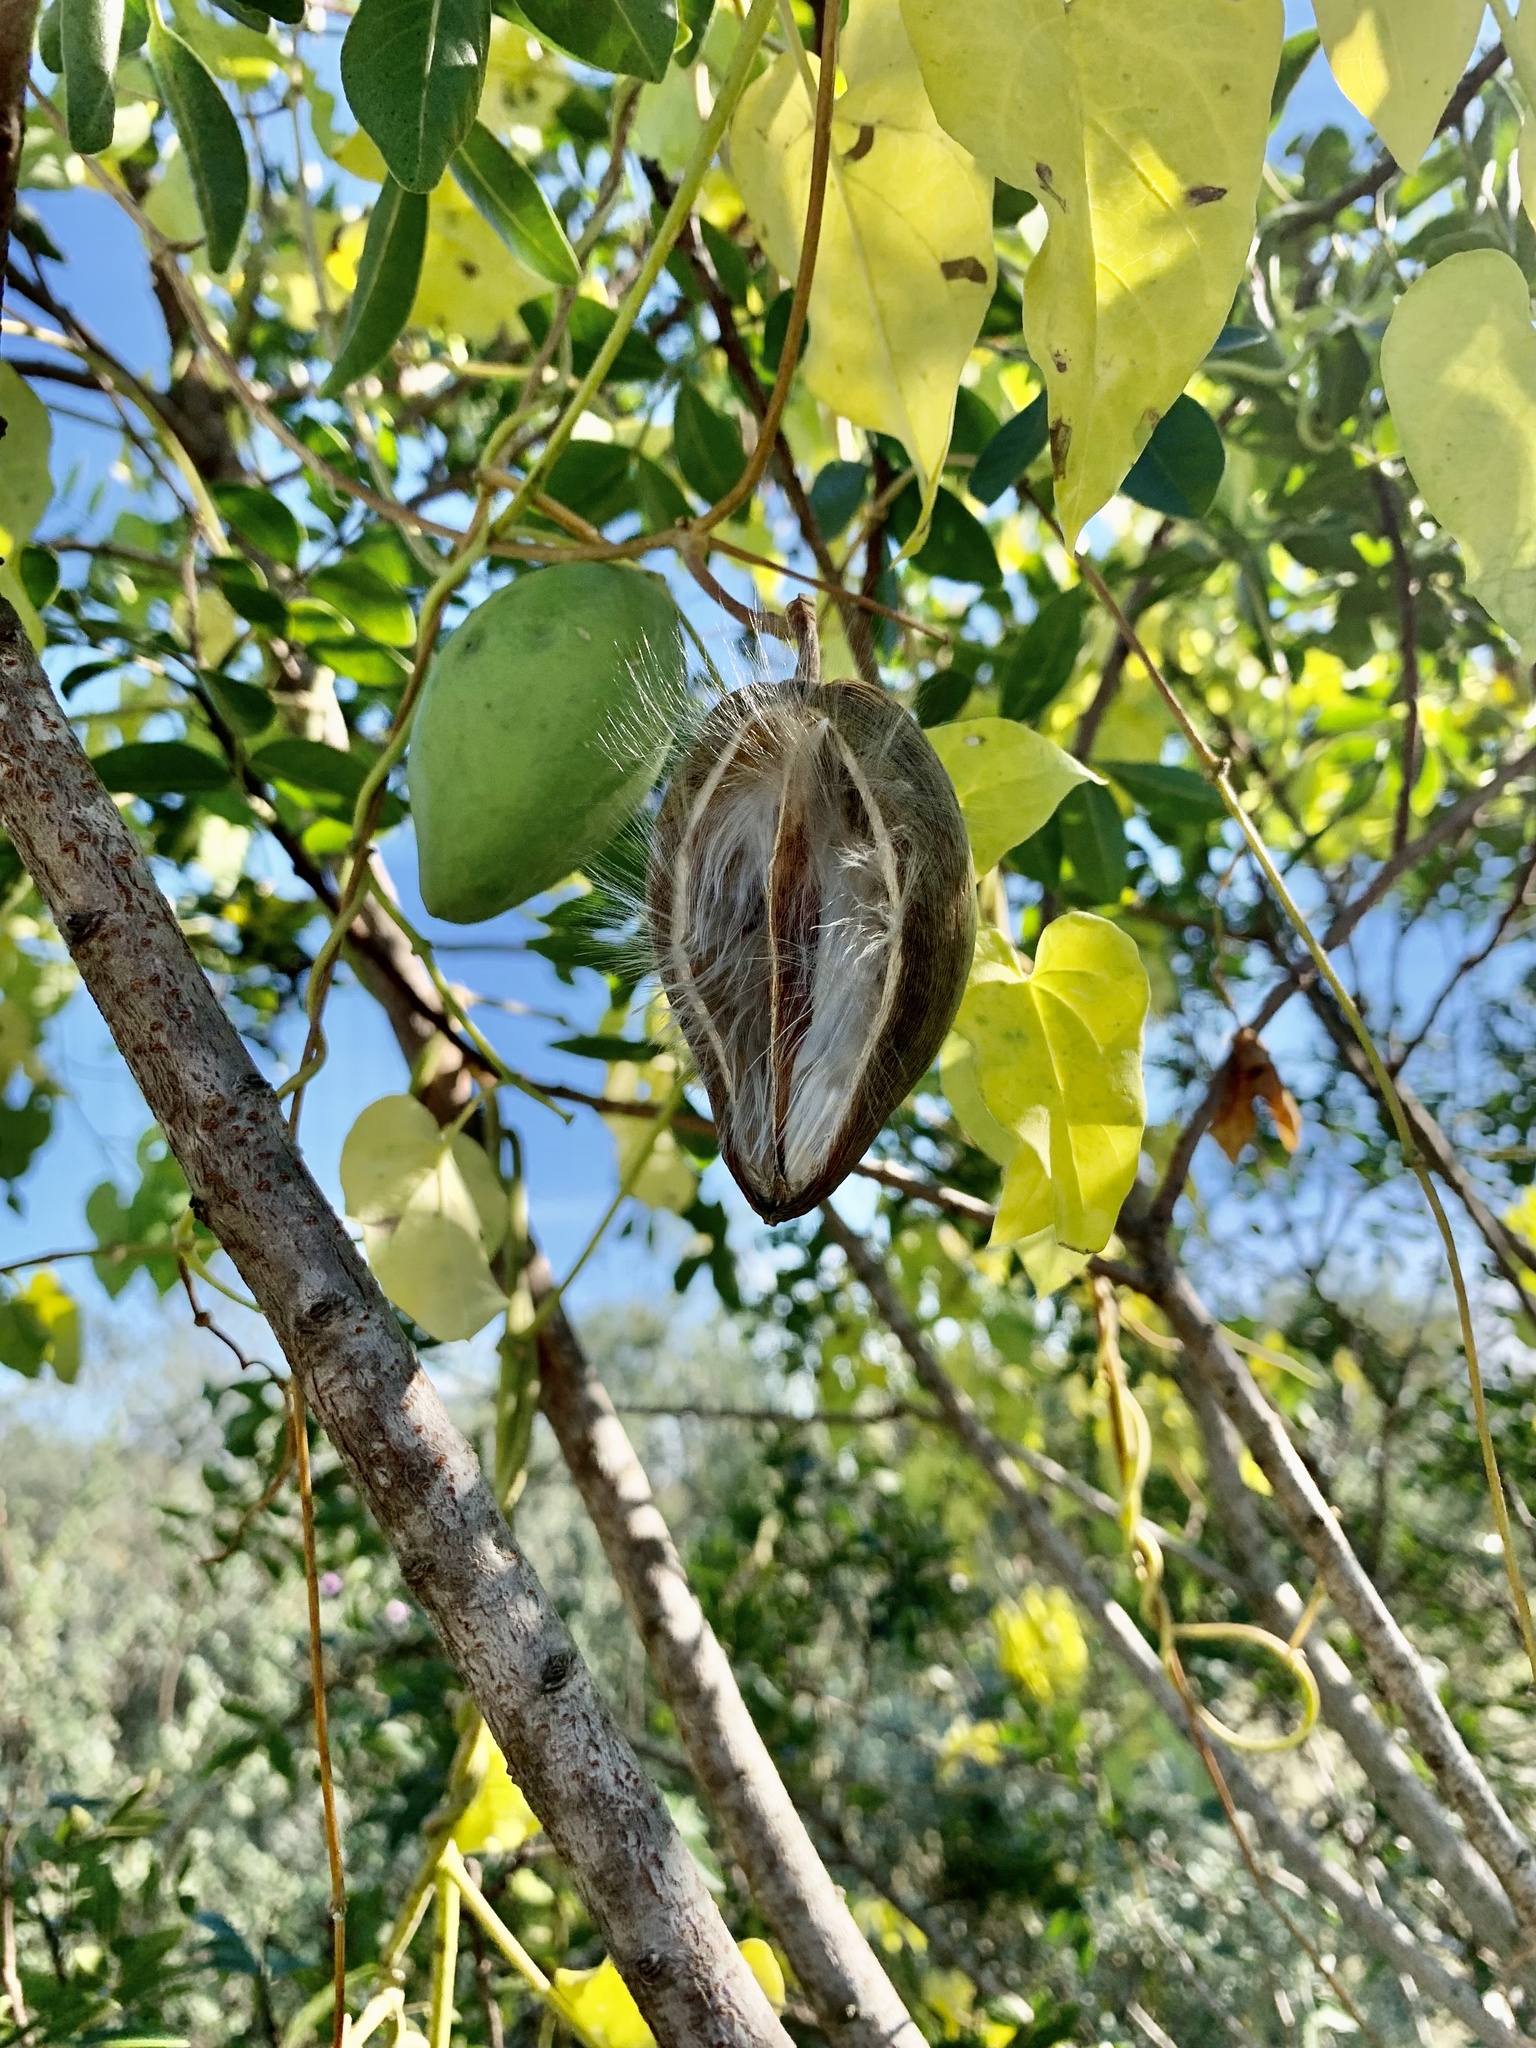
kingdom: Plantae
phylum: Tracheophyta
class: Magnoliopsida
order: Gentianales
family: Apocynaceae
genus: Cynanchum
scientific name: Cynanchum racemosum
